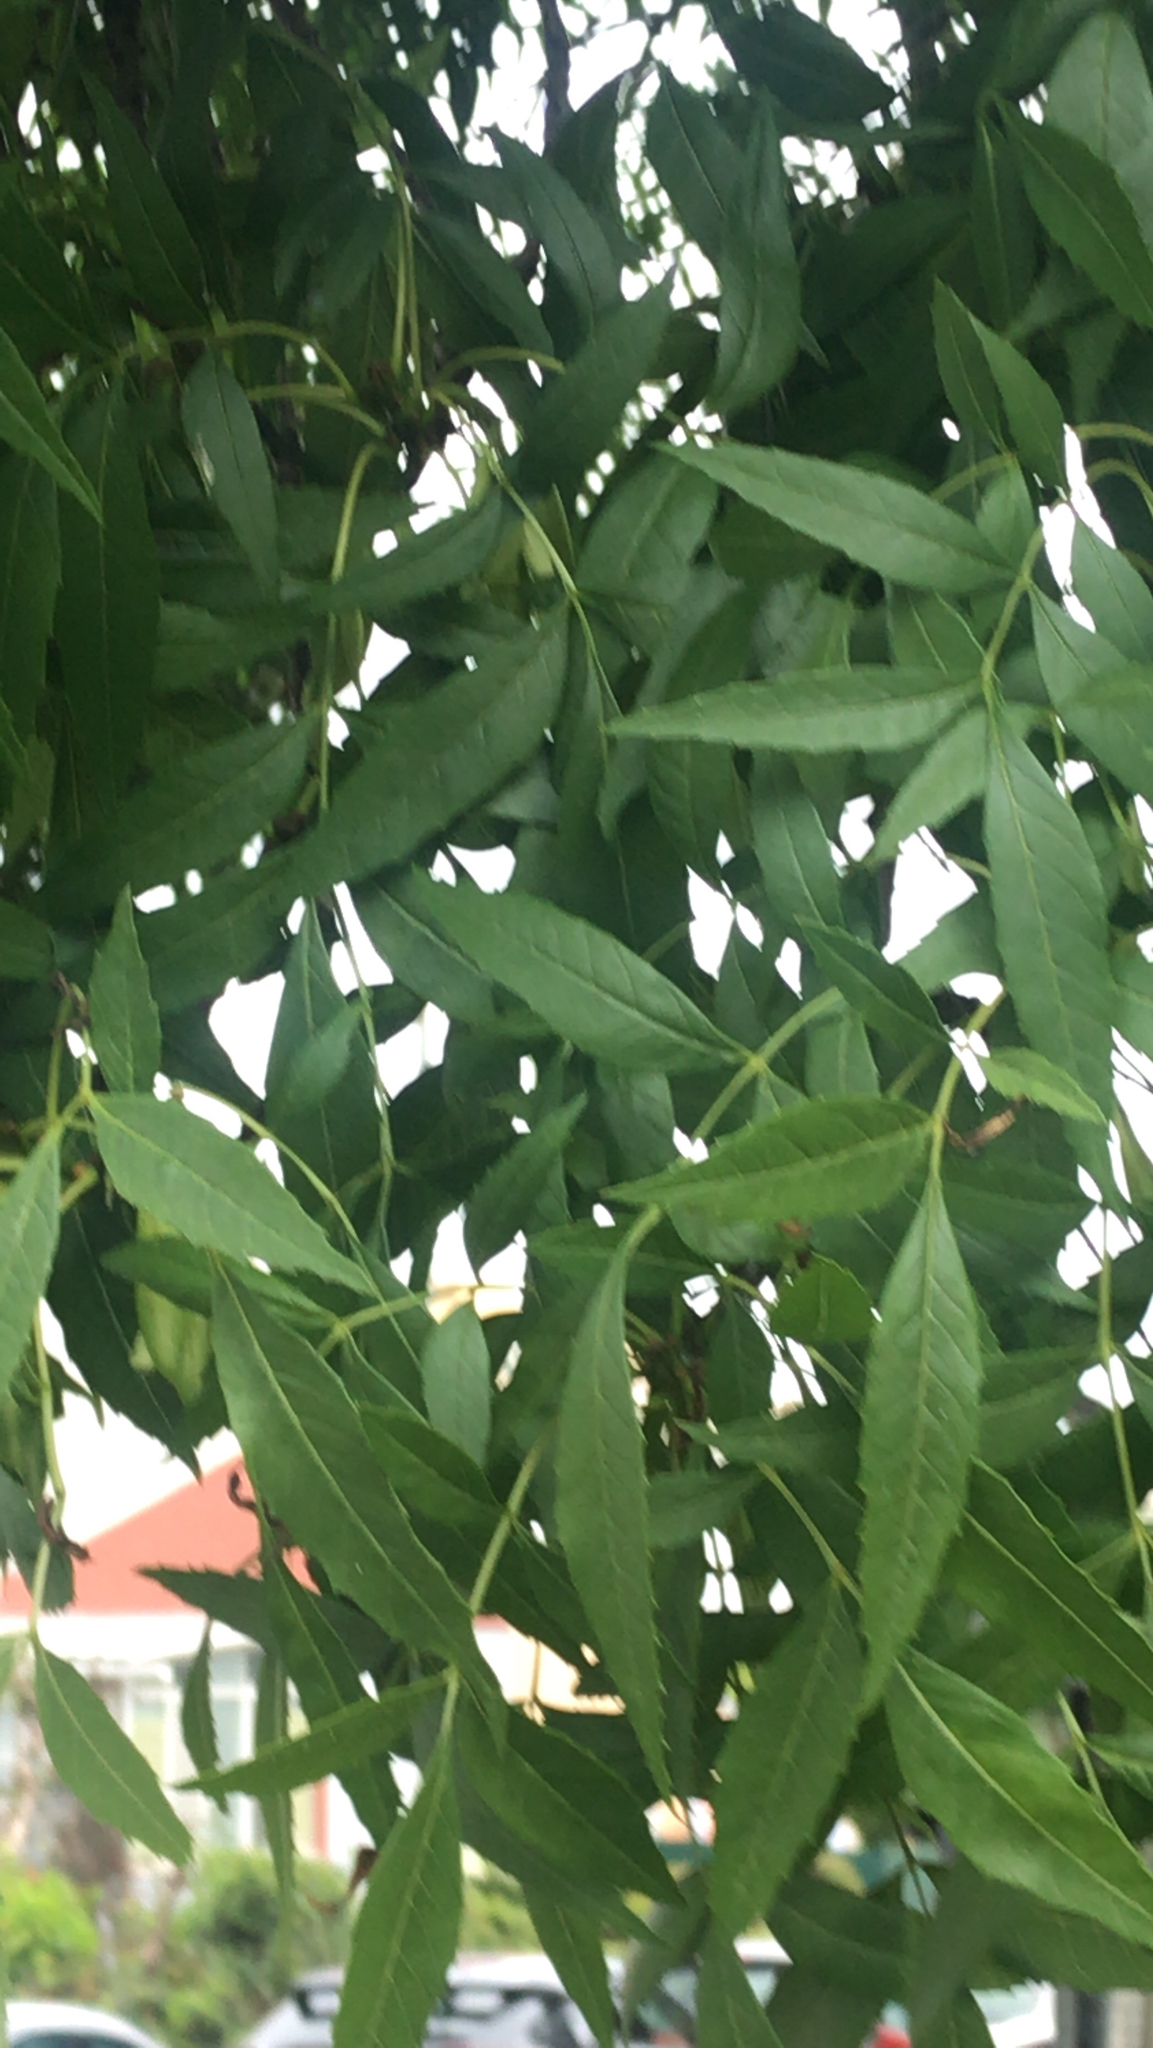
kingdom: Plantae
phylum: Tracheophyta
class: Magnoliopsida
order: Lamiales
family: Oleaceae
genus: Fraxinus
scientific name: Fraxinus angustifolia
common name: Narrow-leafed ash
